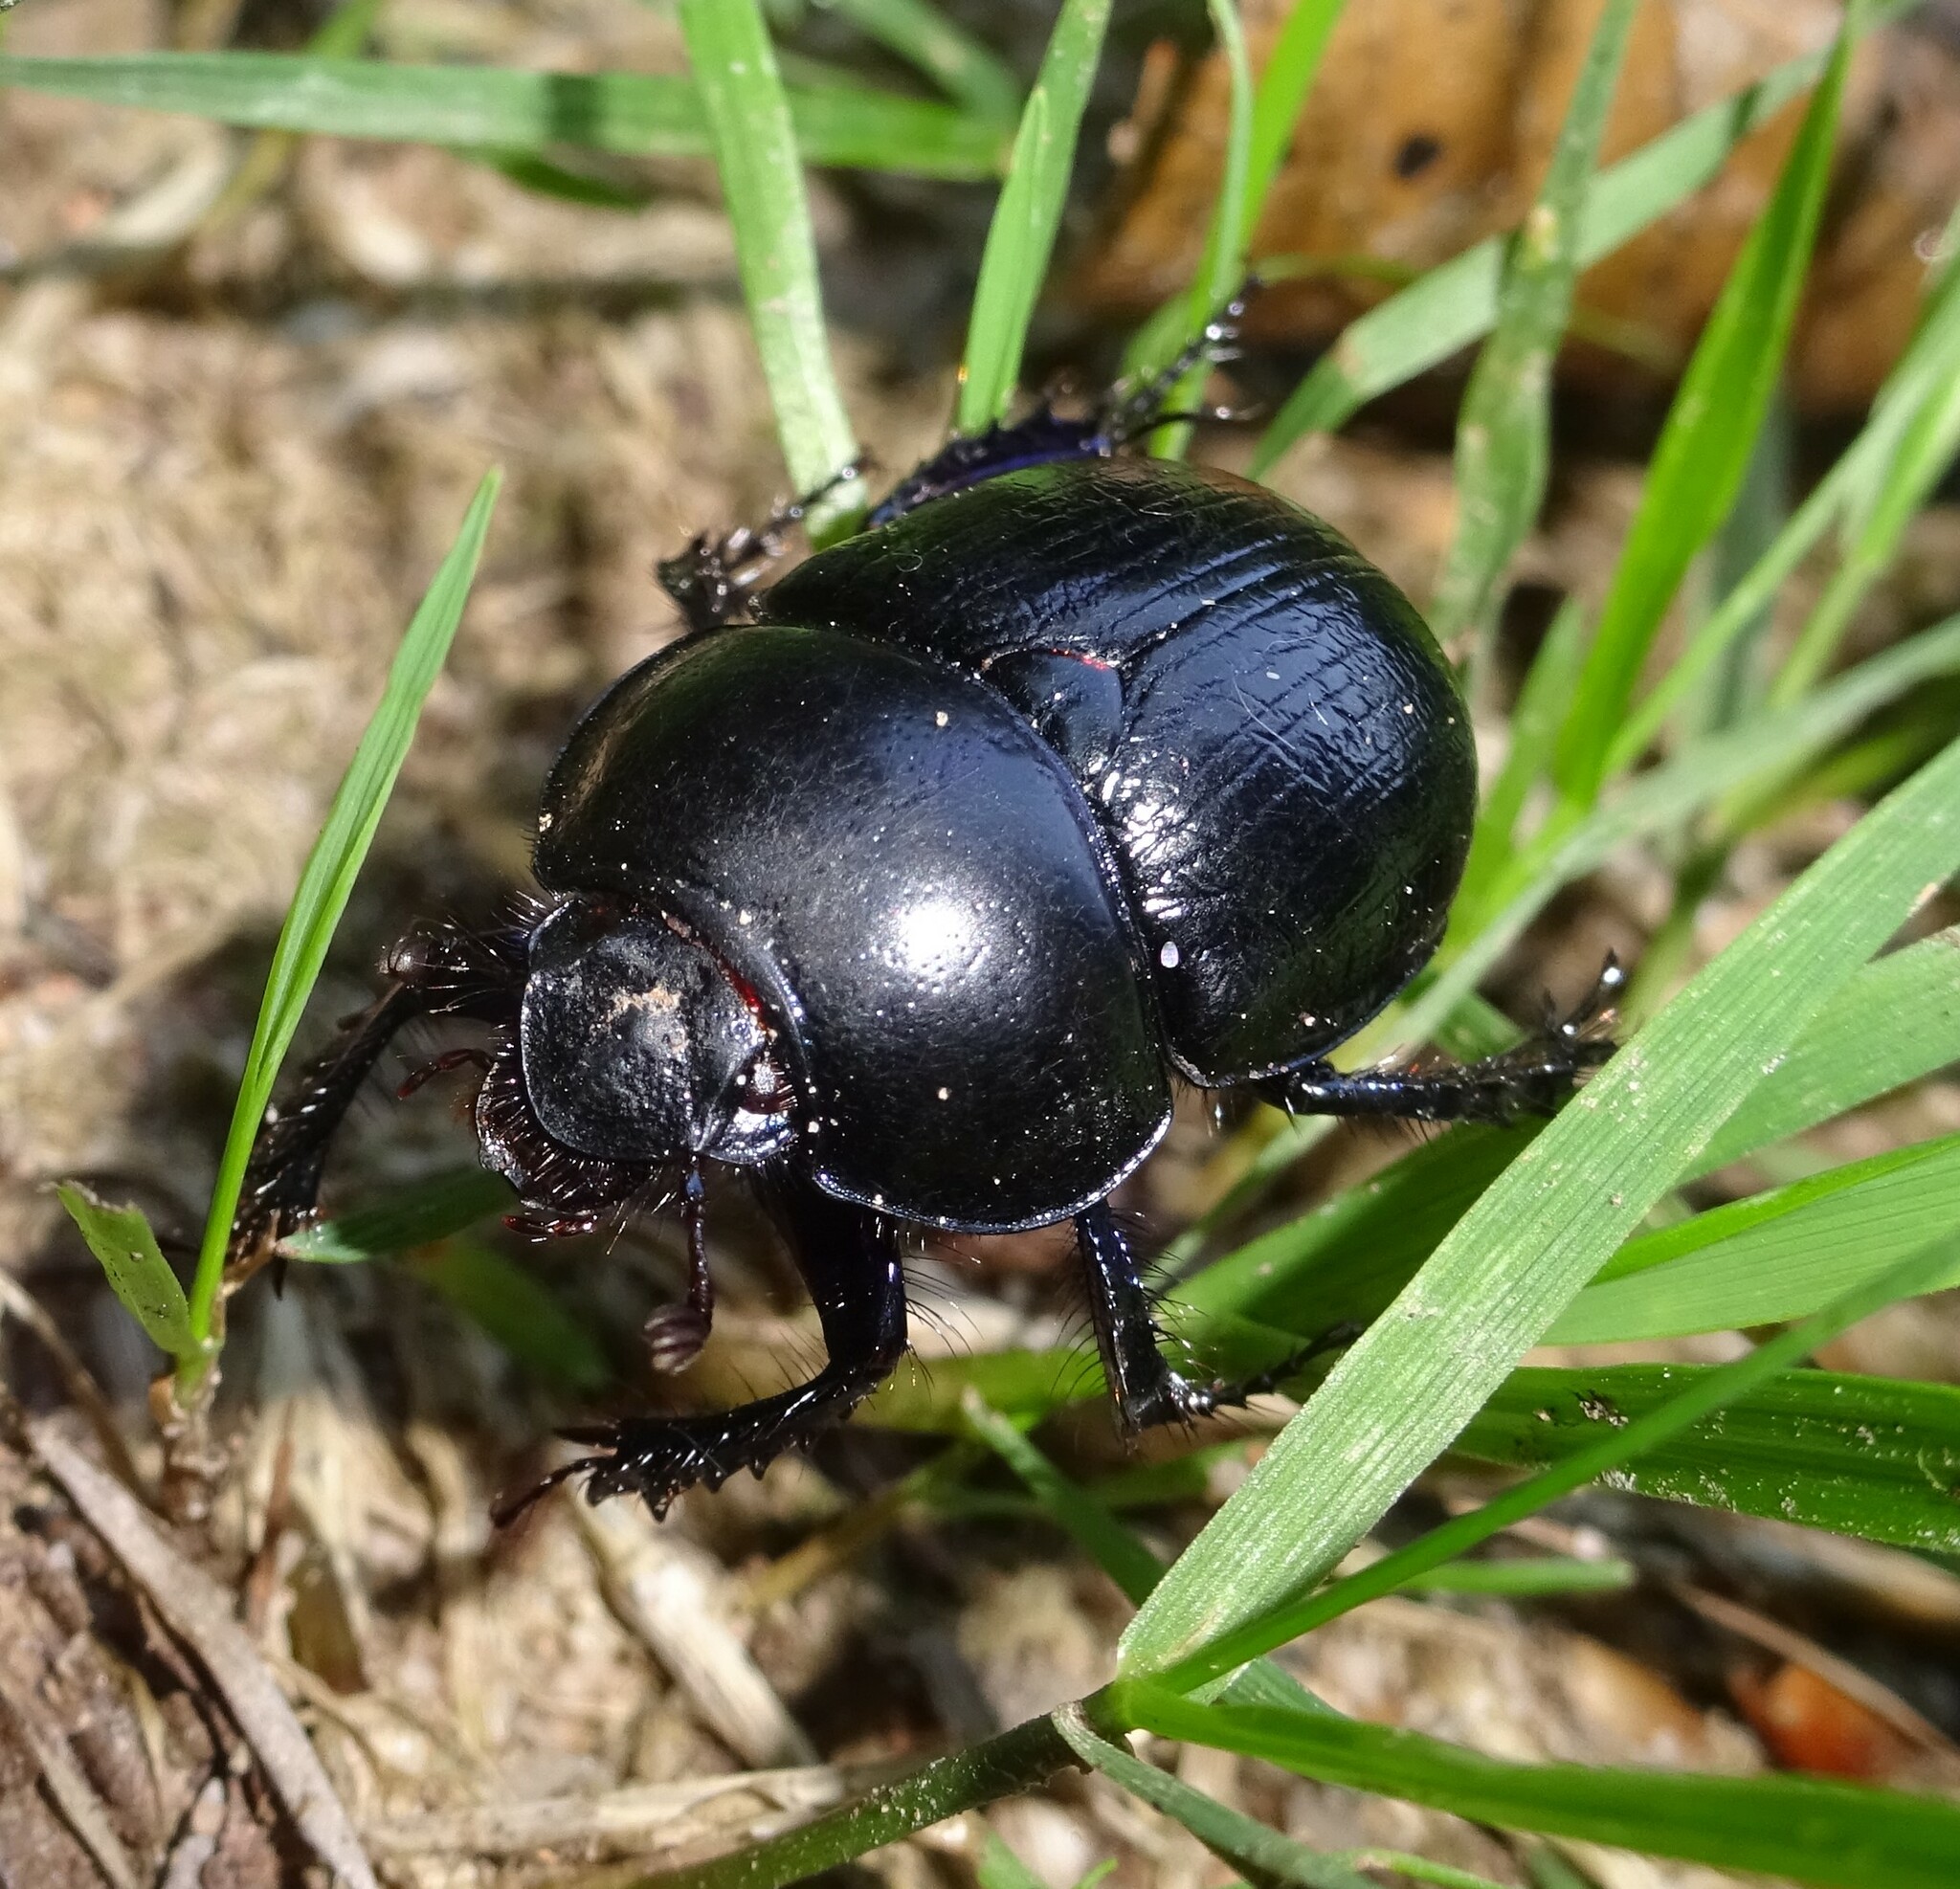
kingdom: Animalia
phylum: Arthropoda
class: Insecta
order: Coleoptera
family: Geotrupidae
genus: Anoplotrupes
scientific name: Anoplotrupes stercorosus
